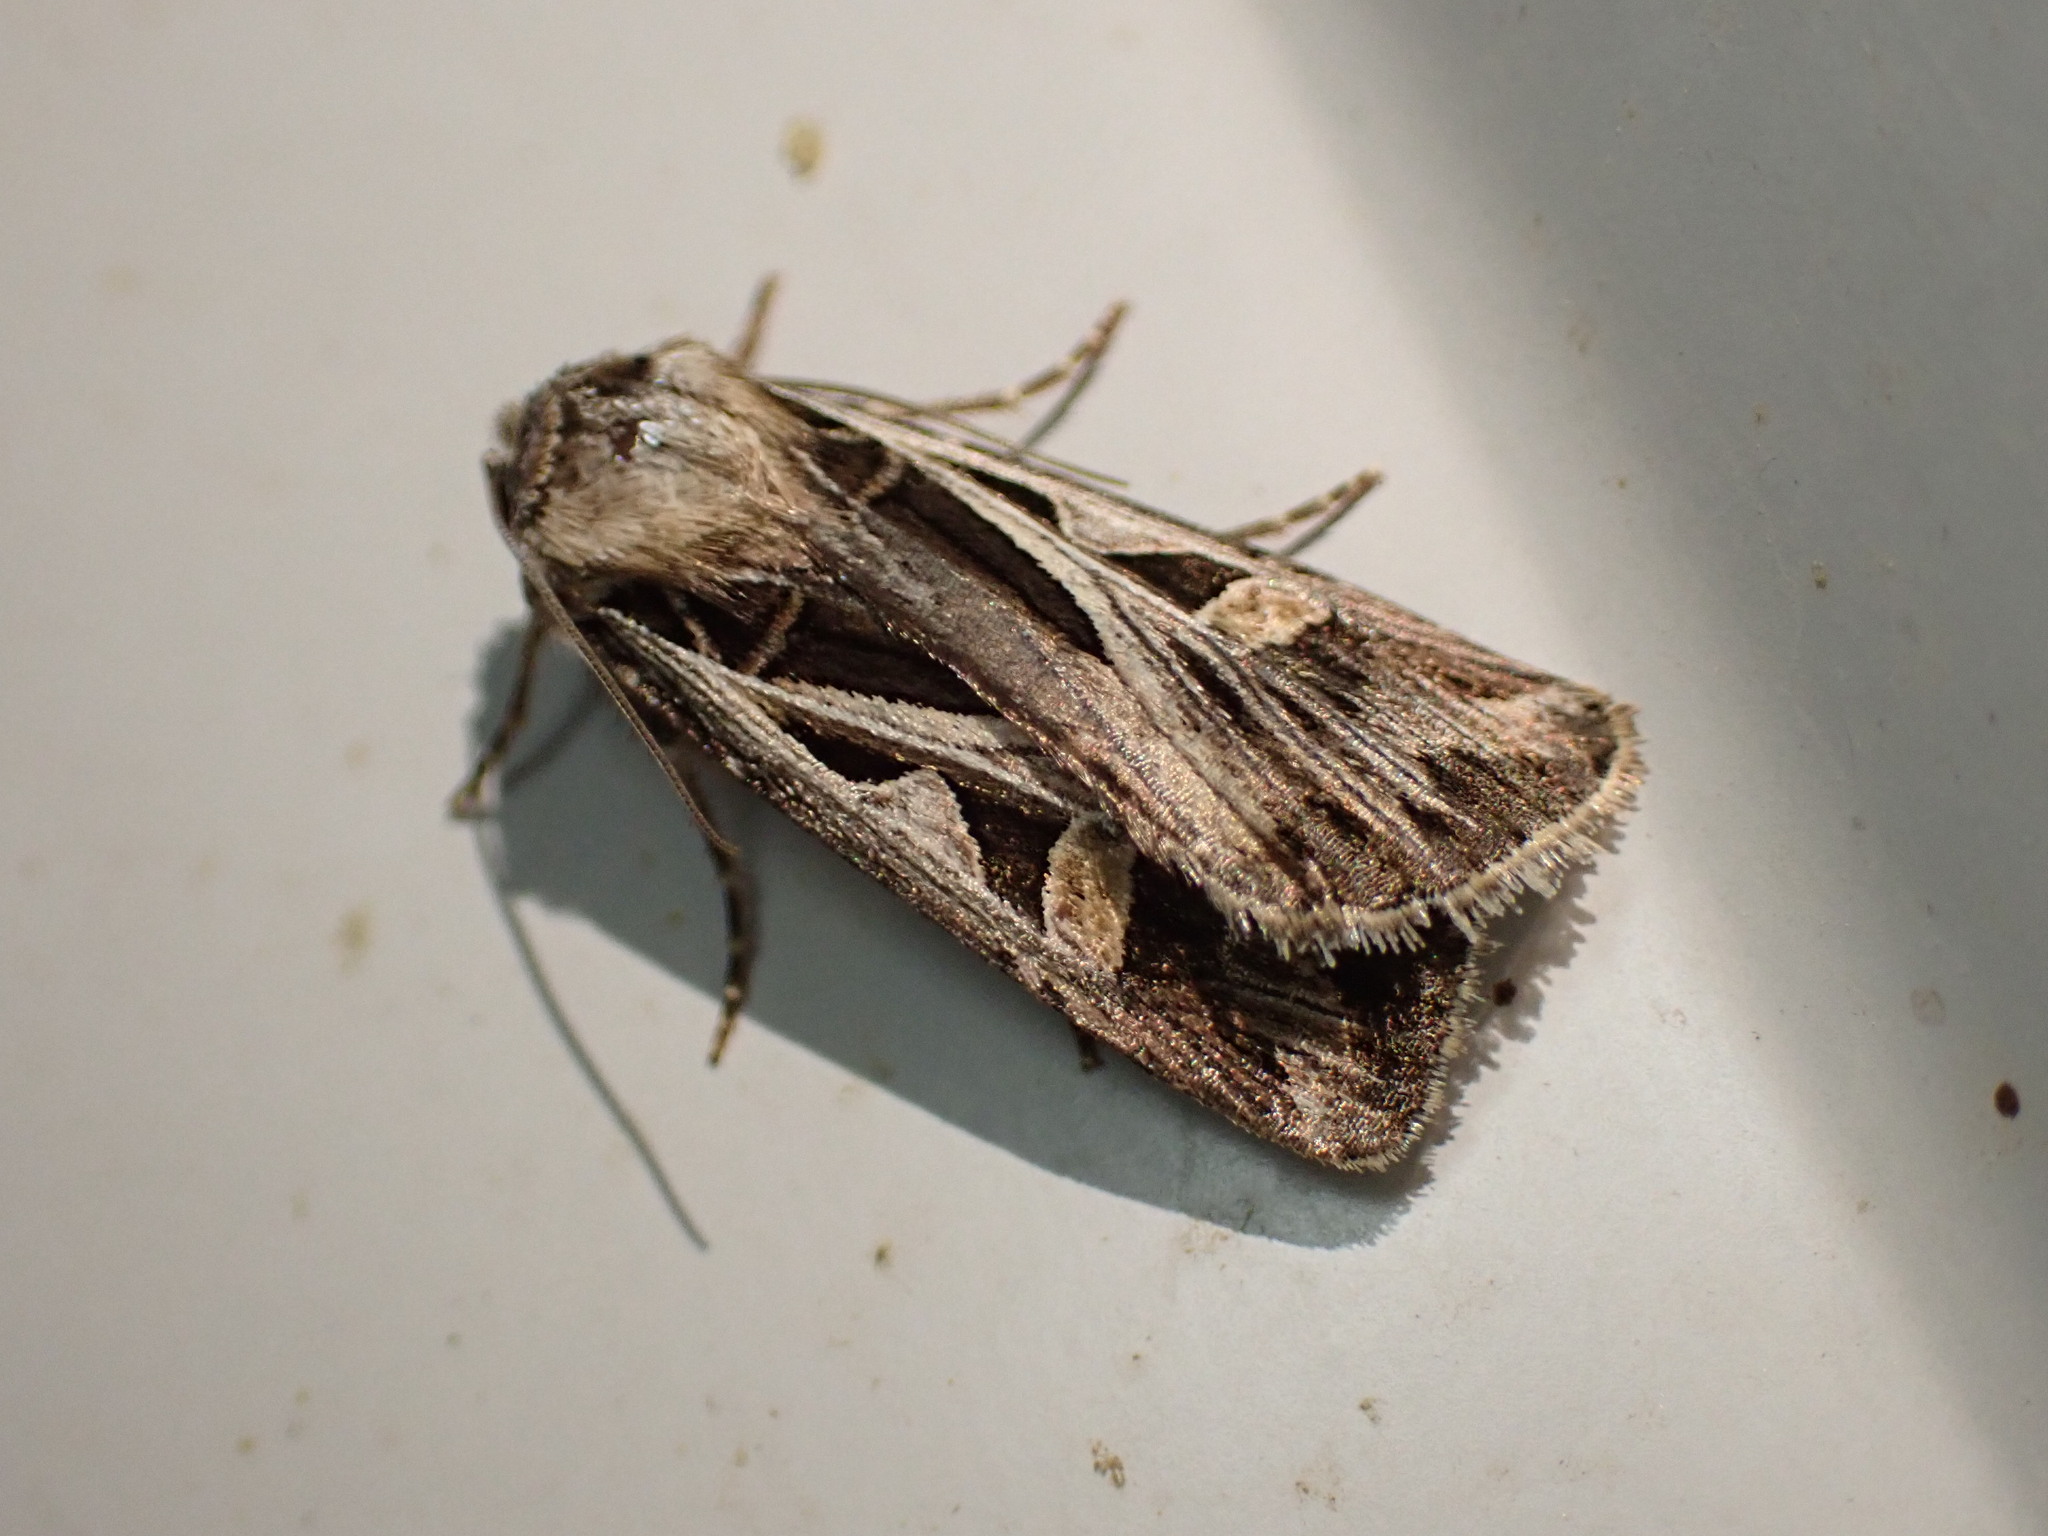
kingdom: Animalia
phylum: Arthropoda
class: Insecta
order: Lepidoptera
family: Noctuidae
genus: Feltia
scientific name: Feltia jaculifera
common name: Dingy cutworm moth
